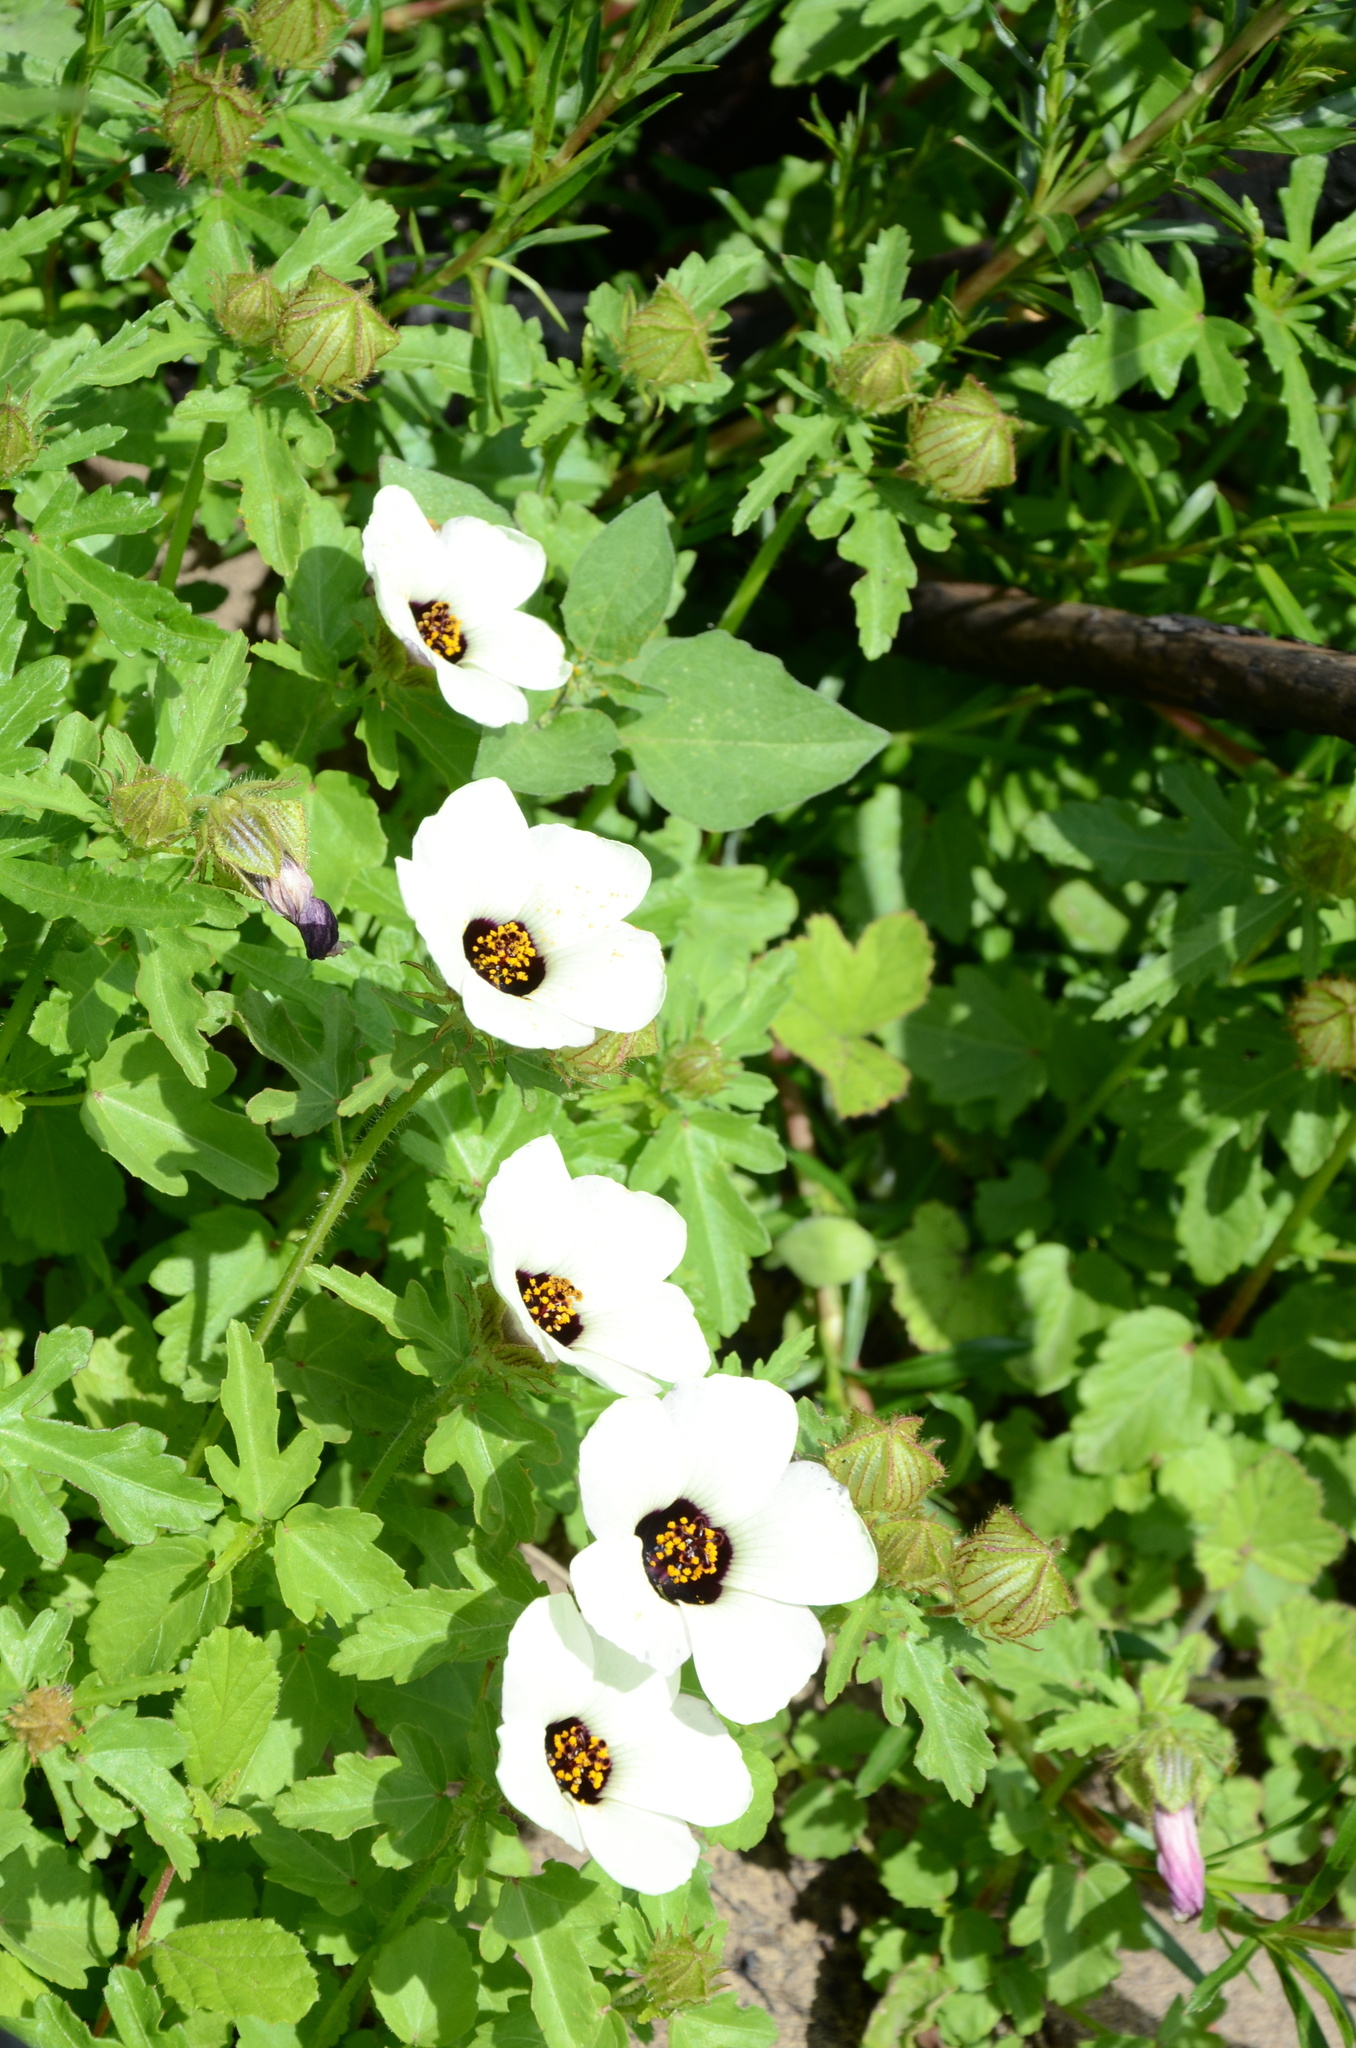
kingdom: Plantae
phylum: Tracheophyta
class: Magnoliopsida
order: Malvales
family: Malvaceae
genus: Hibiscus
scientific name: Hibiscus trionum
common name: Bladder ketmia
